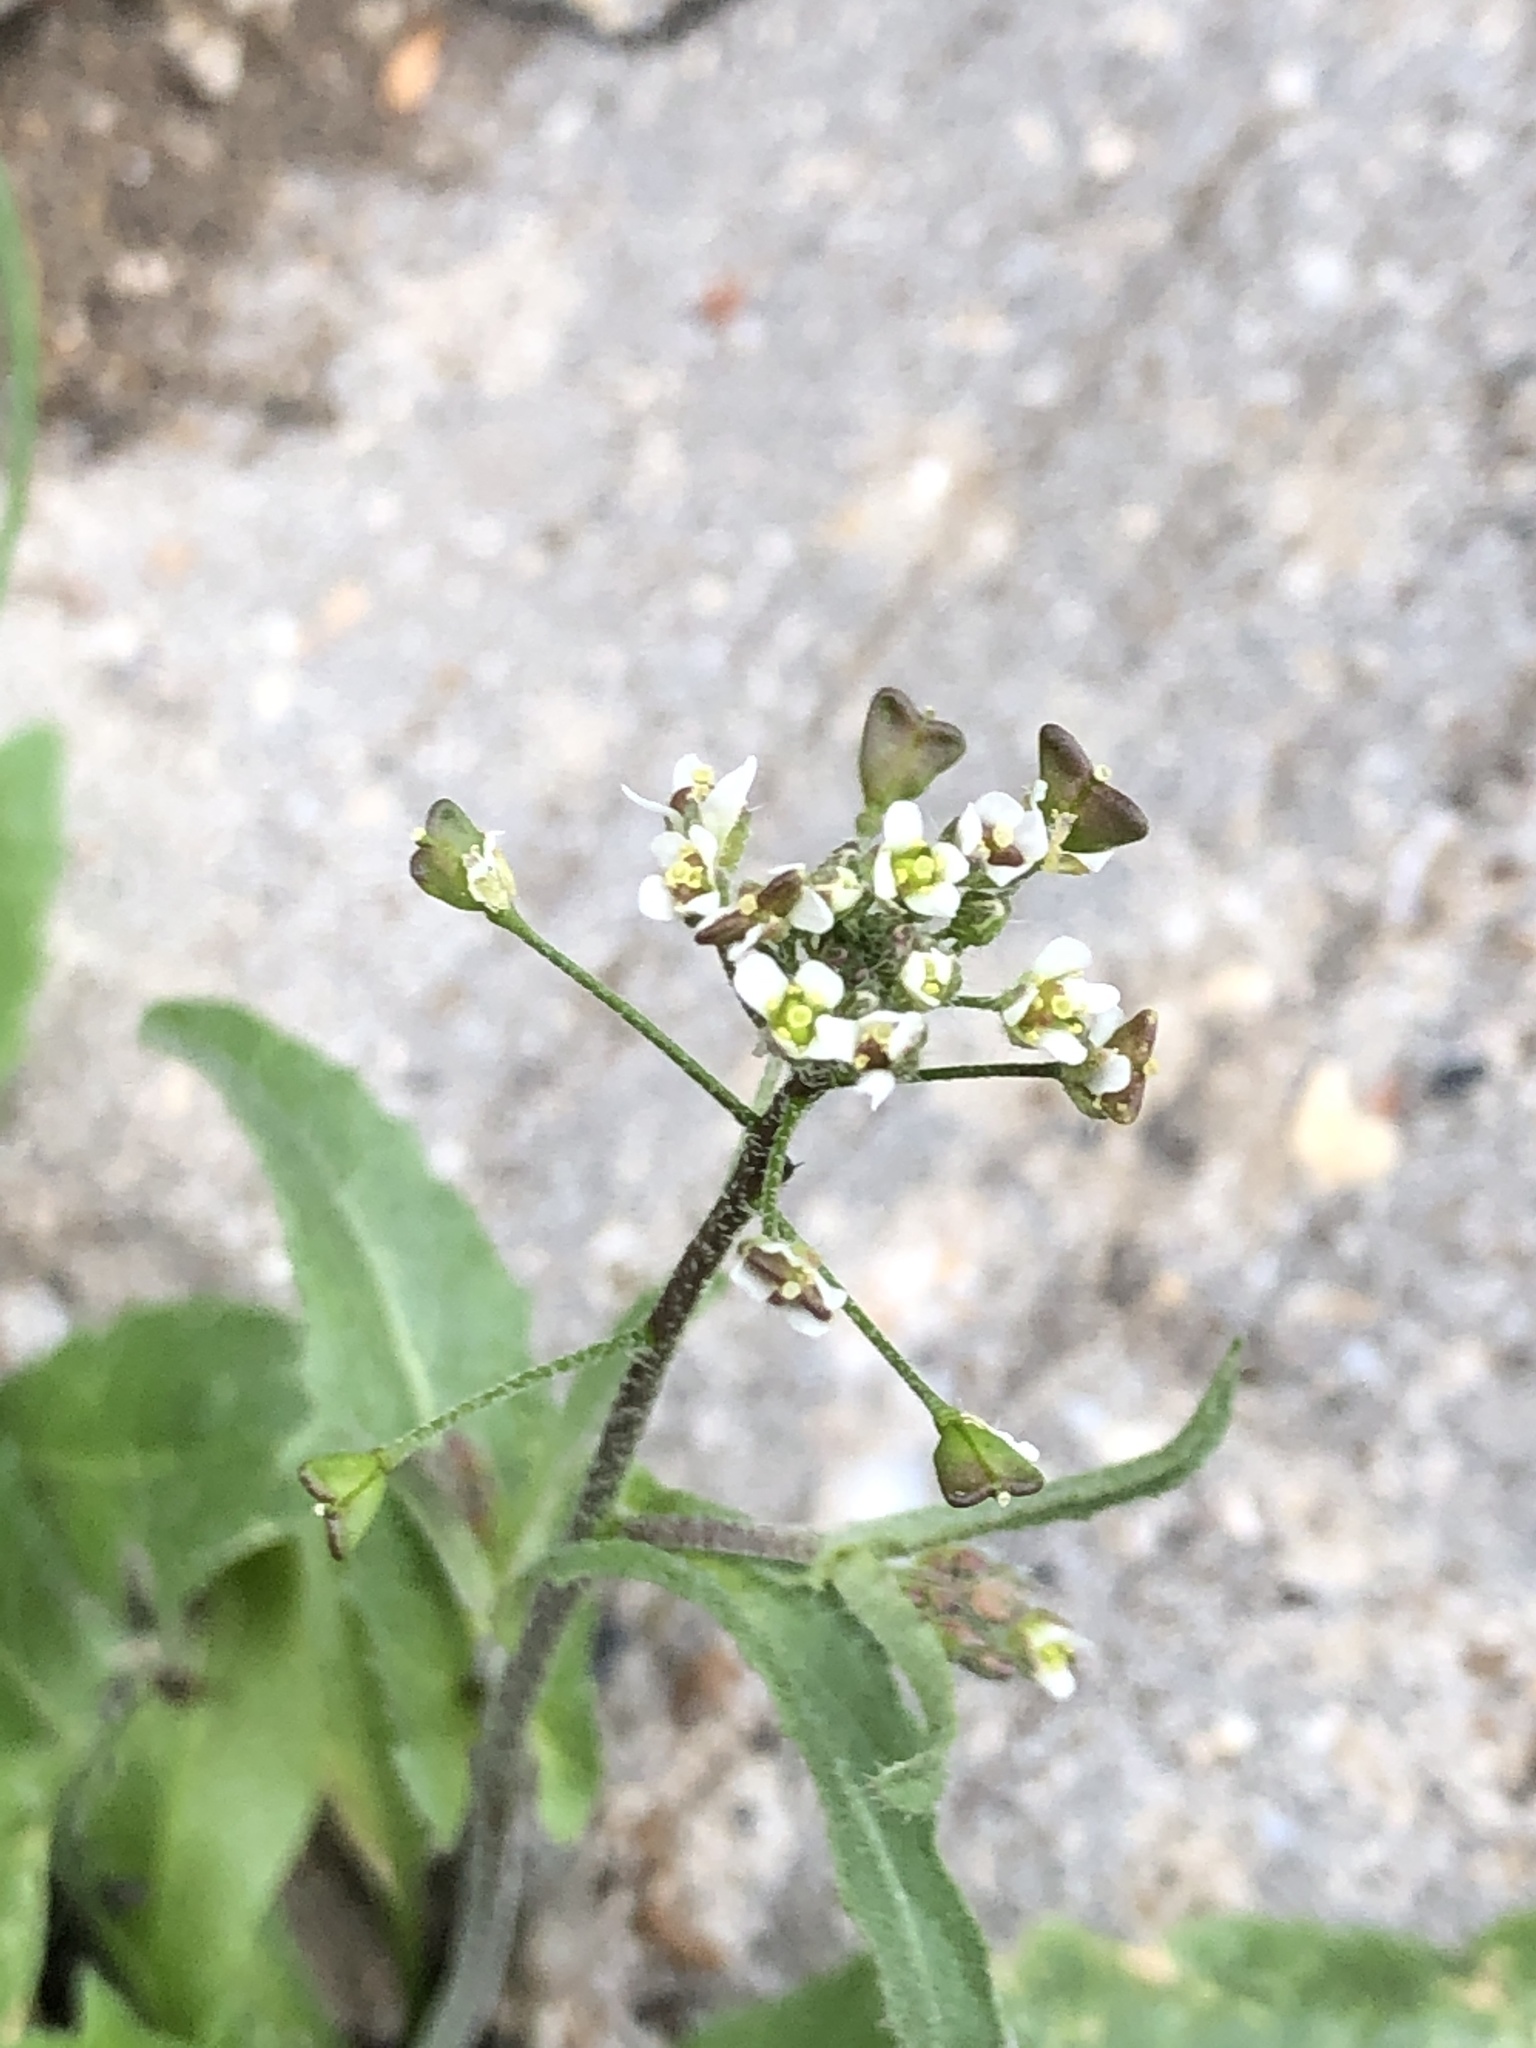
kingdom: Plantae
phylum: Tracheophyta
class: Magnoliopsida
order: Brassicales
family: Brassicaceae
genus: Capsella
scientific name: Capsella bursa-pastoris
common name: Shepherd's purse
